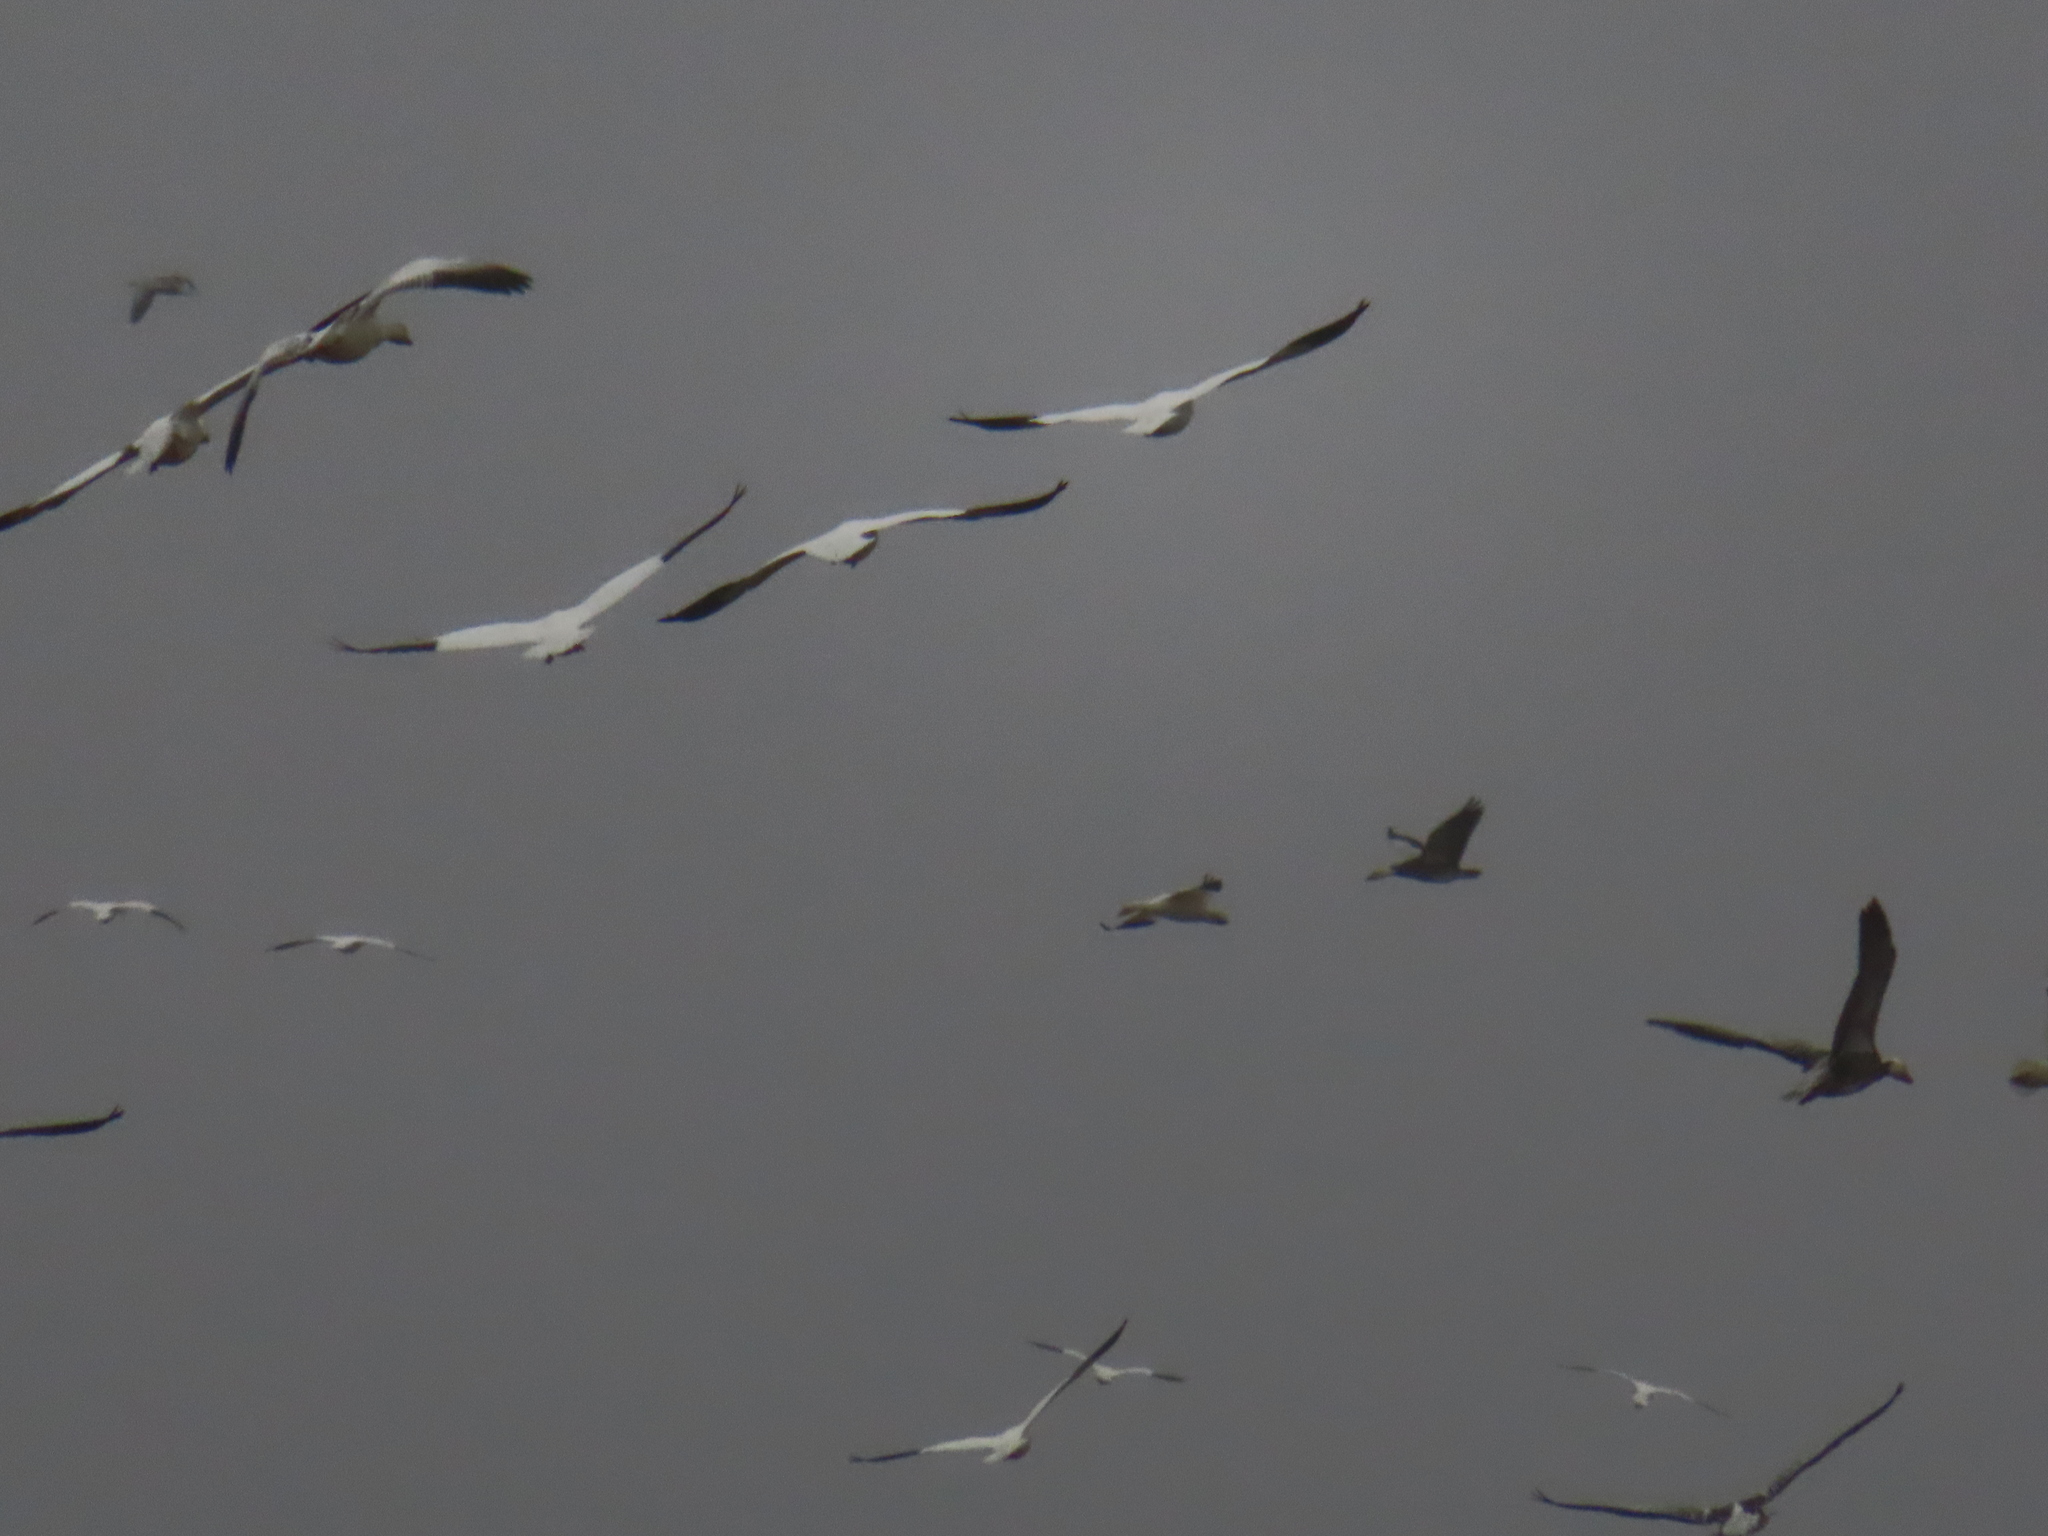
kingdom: Animalia
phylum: Chordata
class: Aves
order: Anseriformes
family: Anatidae
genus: Anser
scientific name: Anser caerulescens
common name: Snow goose
